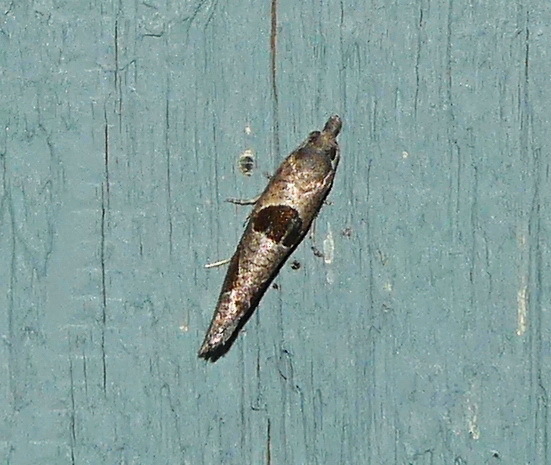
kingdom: Animalia
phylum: Arthropoda
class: Insecta
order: Lepidoptera
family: Tortricidae
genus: Pelochrista
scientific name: Pelochrista dorsisignatana
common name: Triangle-backed pelochrista moth
